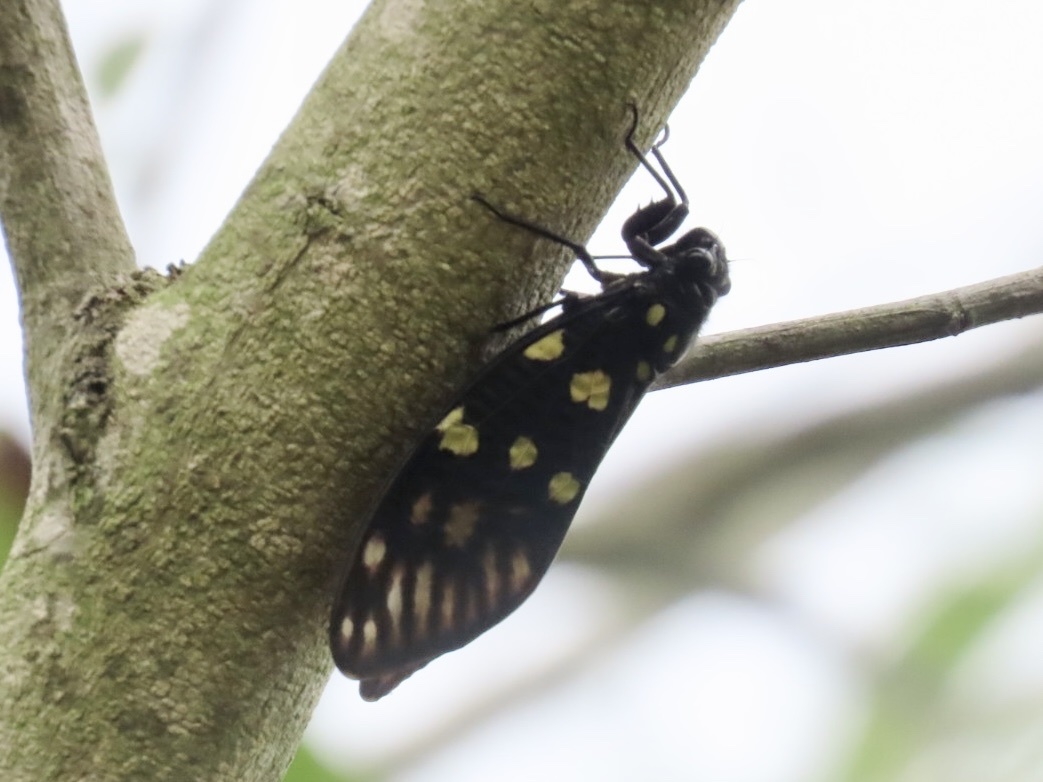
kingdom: Animalia
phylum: Arthropoda
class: Insecta
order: Hemiptera
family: Cicadidae
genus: Gaeana
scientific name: Gaeana maculata
